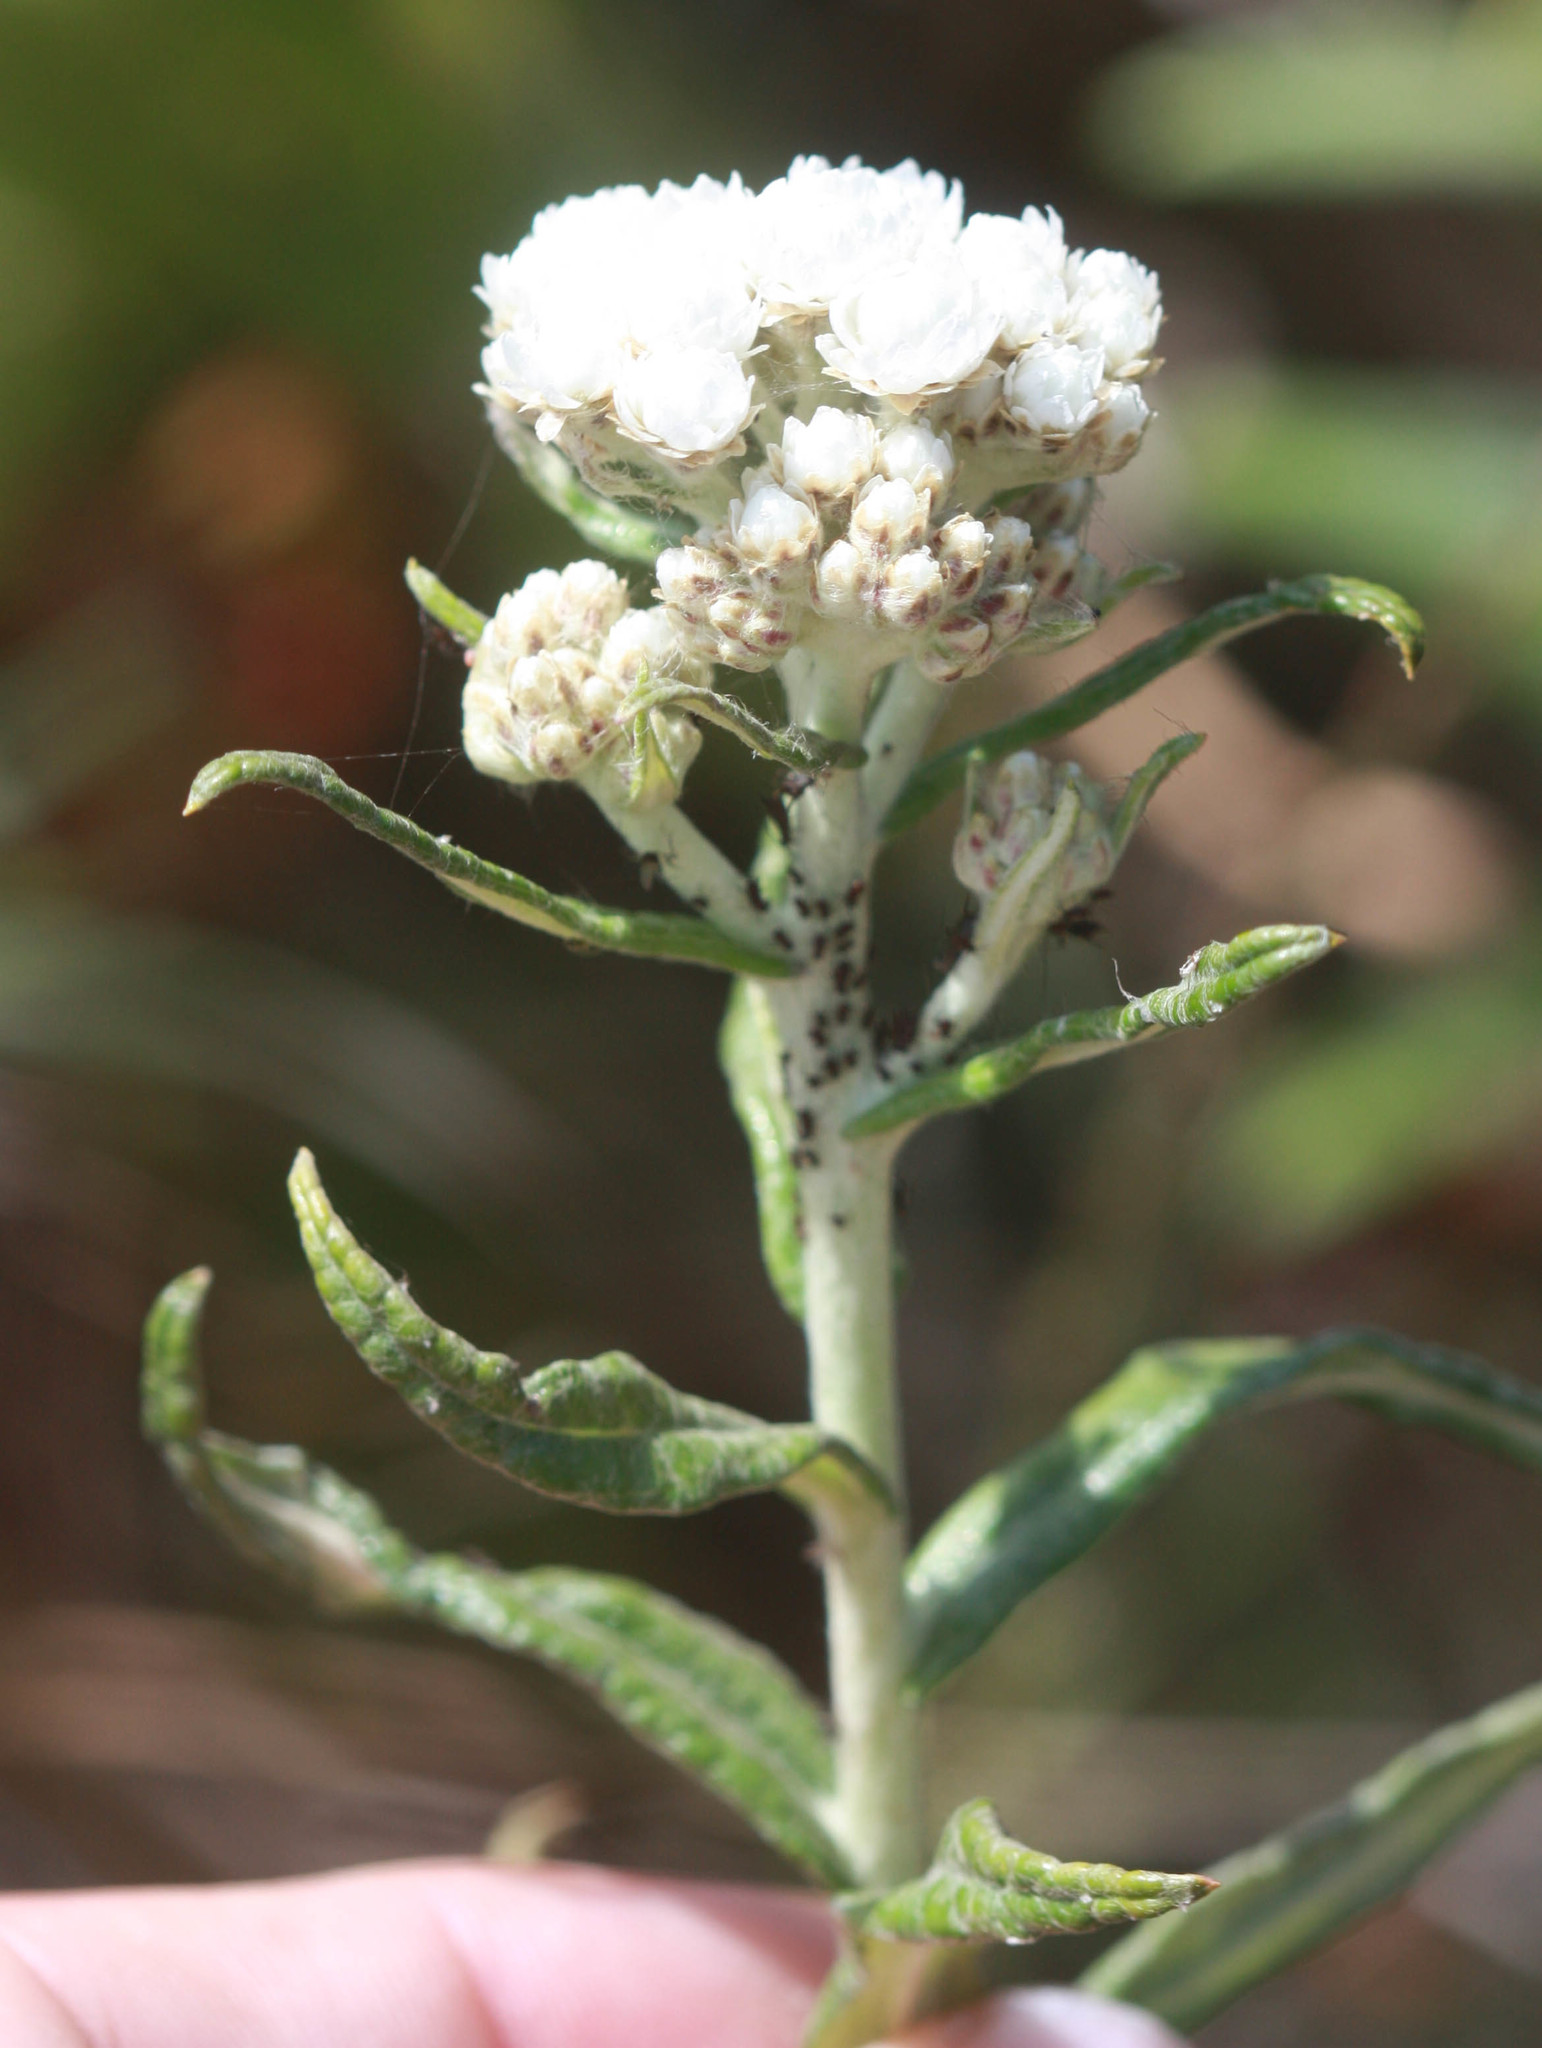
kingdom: Plantae
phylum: Tracheophyta
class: Magnoliopsida
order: Asterales
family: Asteraceae
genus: Anaphalis
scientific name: Anaphalis margaritacea
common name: Pearly everlasting
